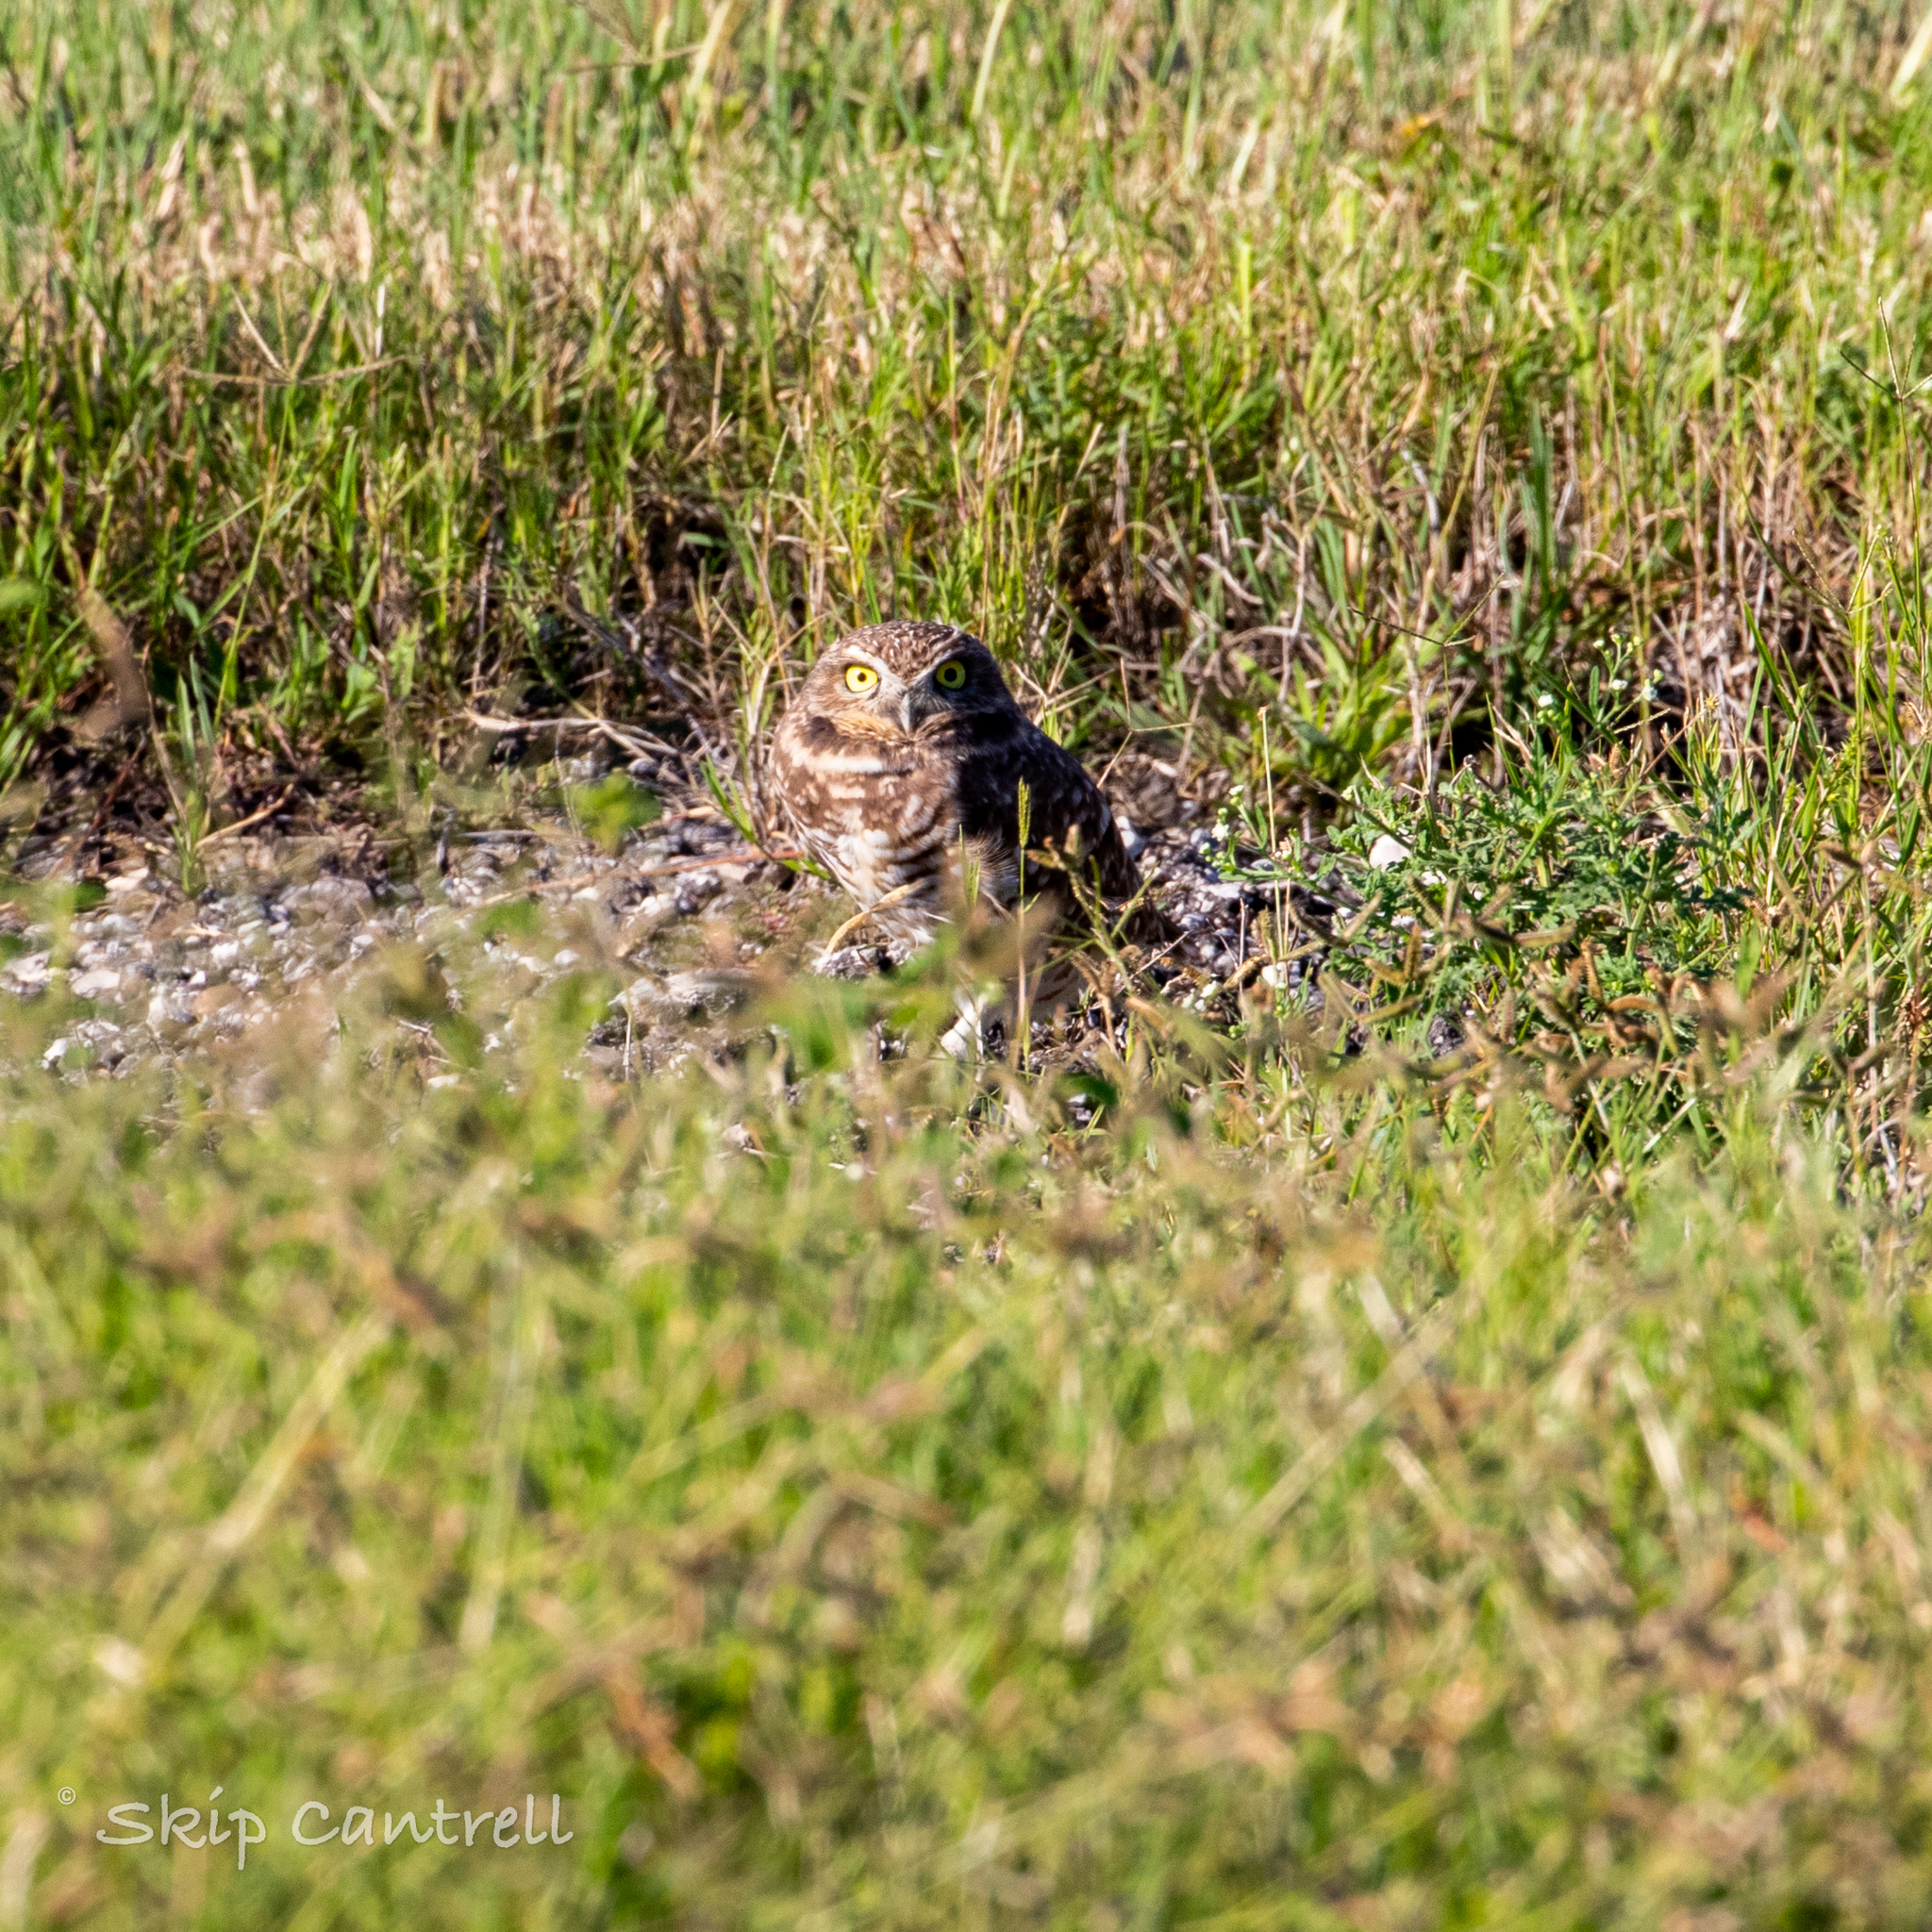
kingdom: Animalia
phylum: Chordata
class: Aves
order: Strigiformes
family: Strigidae
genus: Athene
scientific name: Athene cunicularia
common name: Burrowing owl
